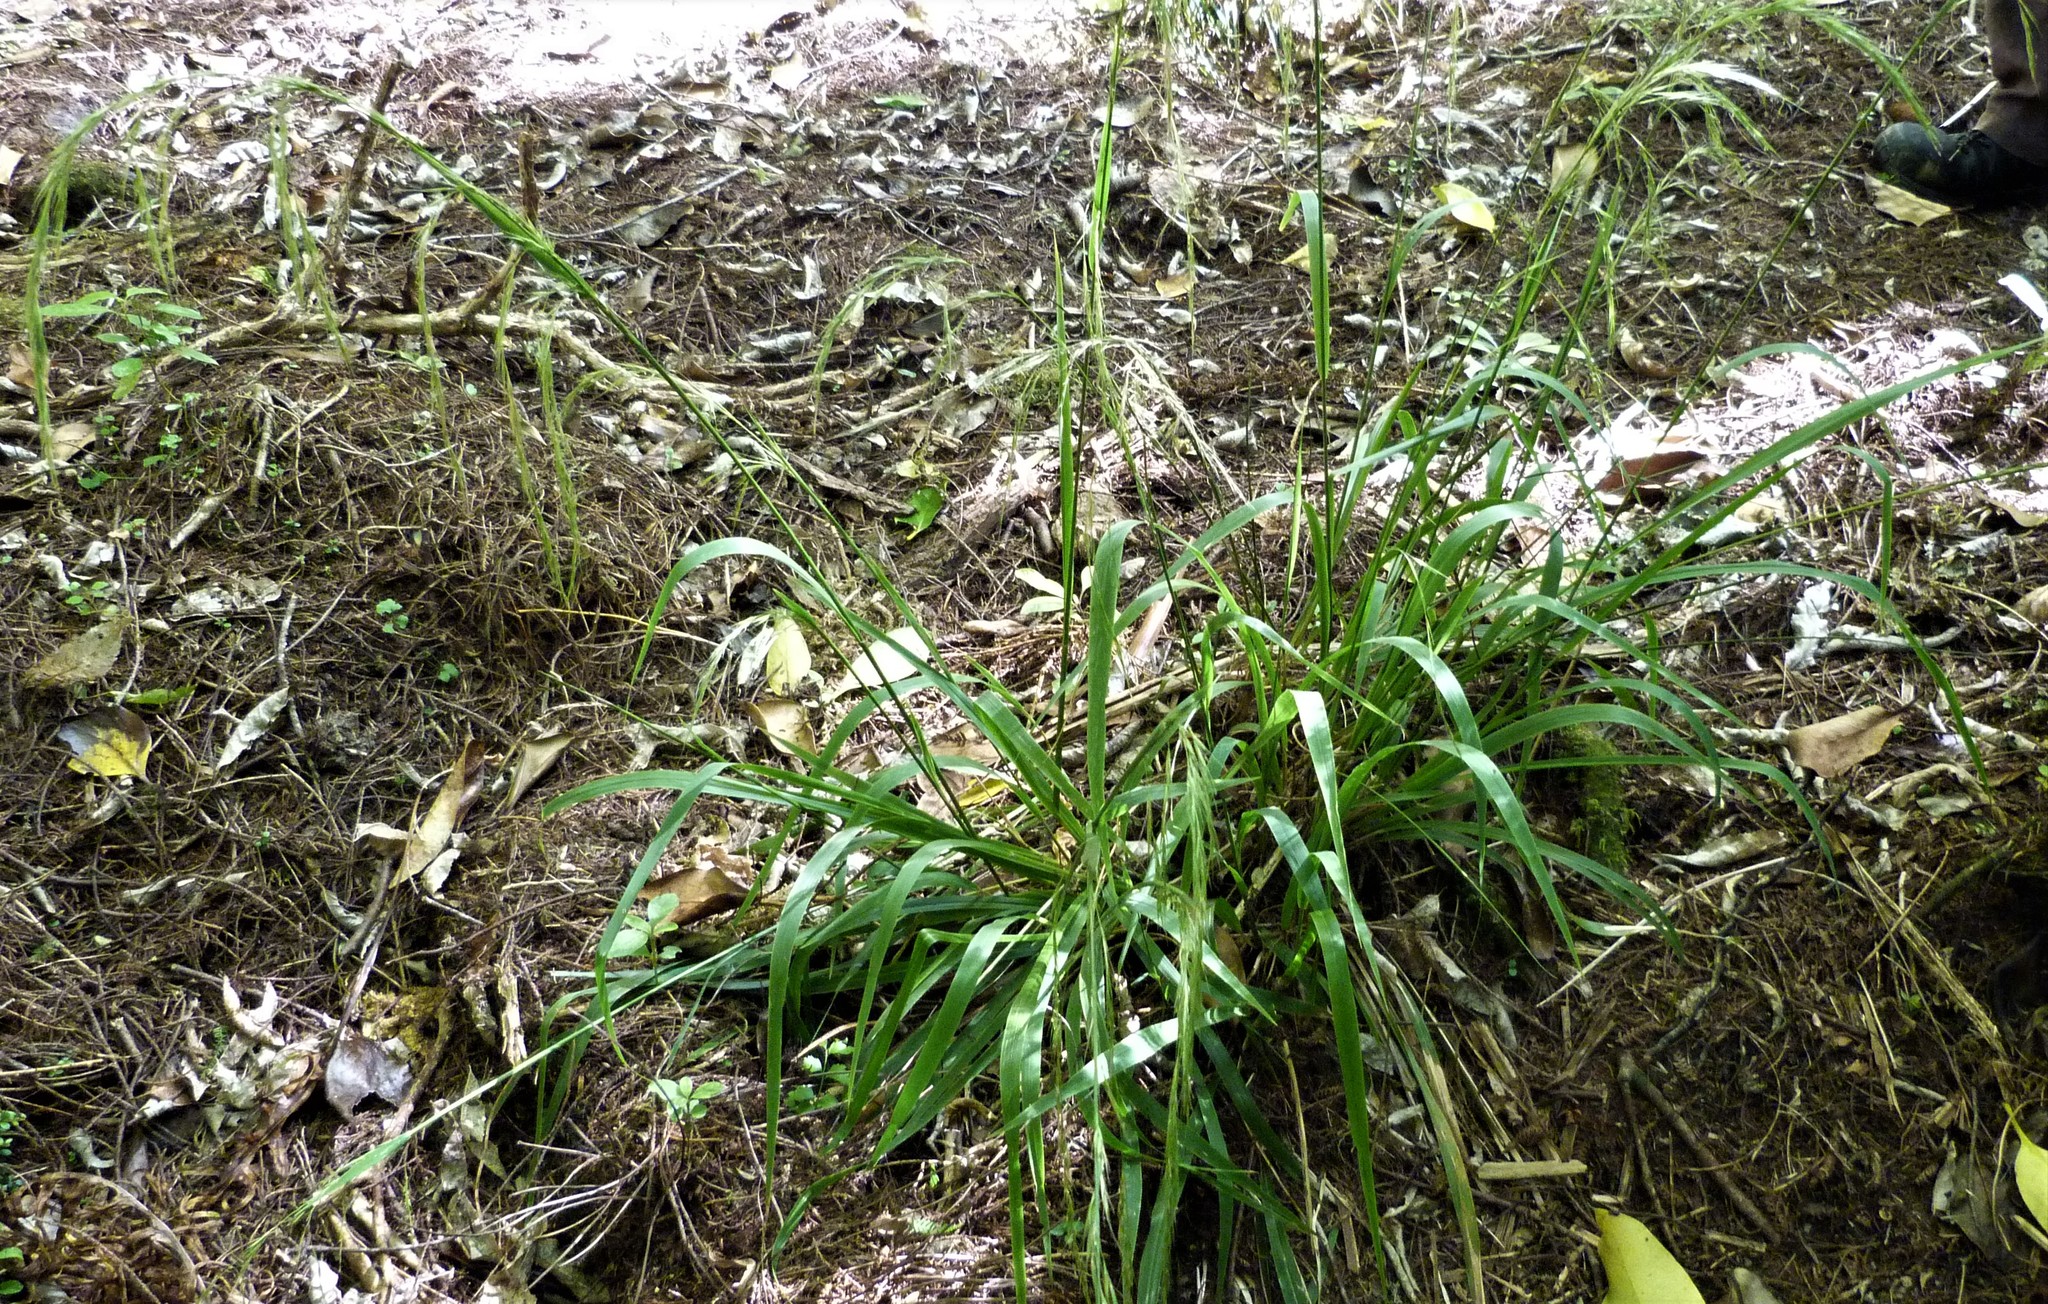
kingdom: Plantae
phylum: Tracheophyta
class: Liliopsida
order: Poales
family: Poaceae
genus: Ehrharta
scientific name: Ehrharta diplax
